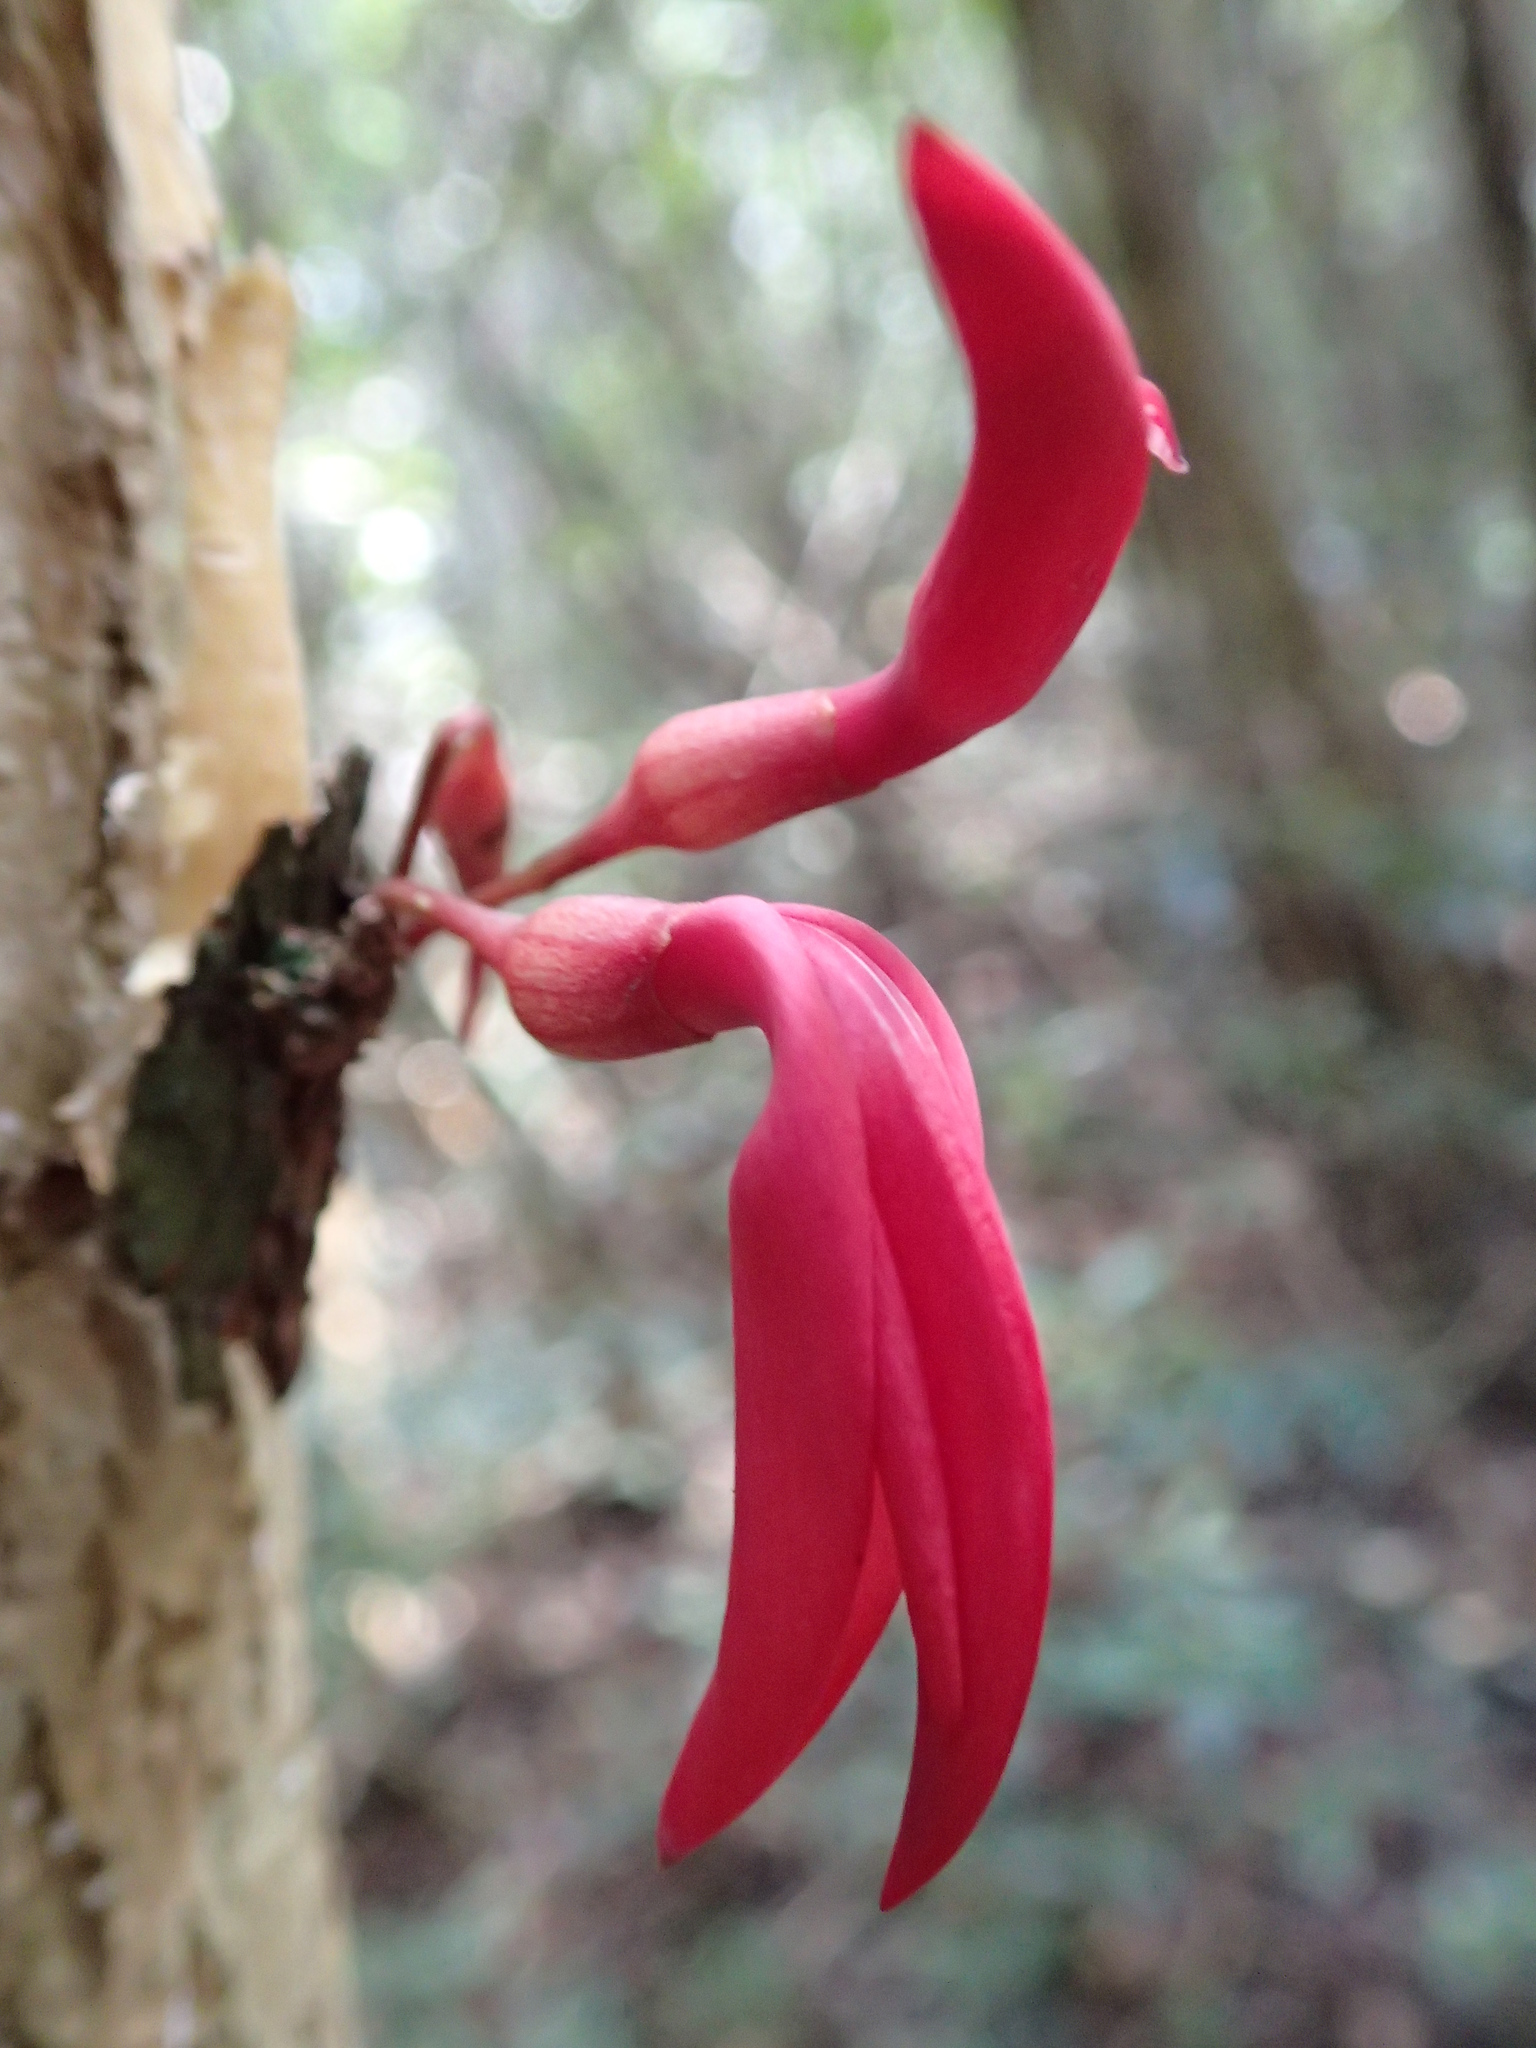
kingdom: Plantae
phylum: Tracheophyta
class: Magnoliopsida
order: Fabales
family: Fabaceae
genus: Sylvichadsia
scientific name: Sylvichadsia grandidieri
